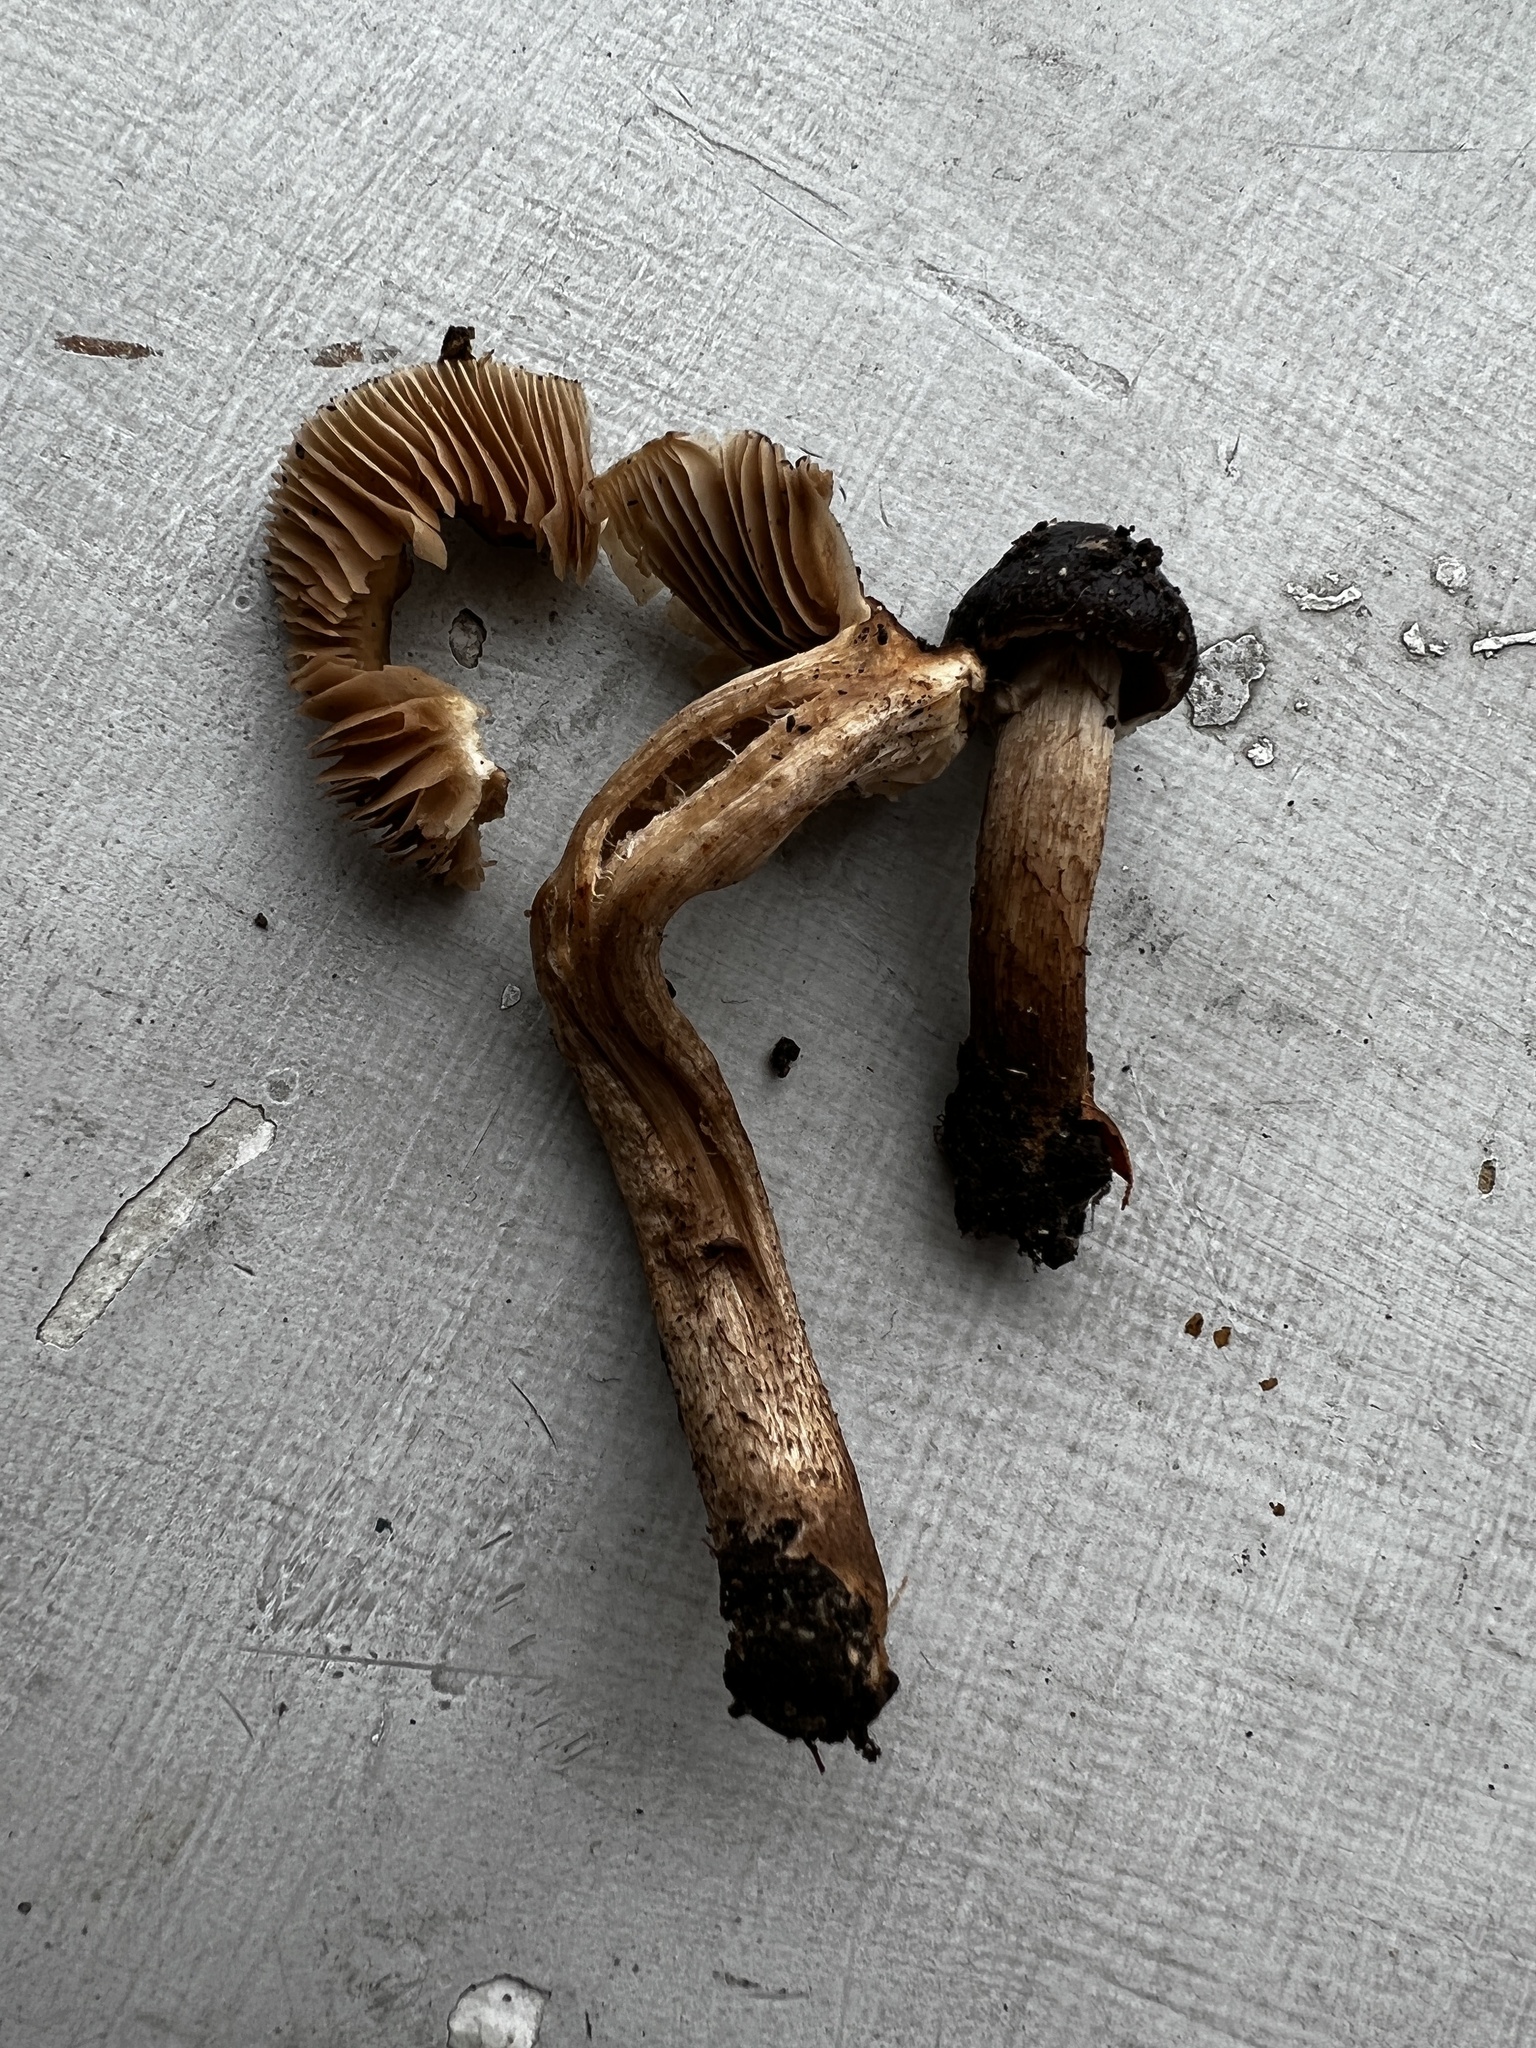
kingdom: Fungi
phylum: Basidiomycota
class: Agaricomycetes
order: Agaricales
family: Tubariaceae
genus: Cyclocybe
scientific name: Cyclocybe erebia
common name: Dark fieldcap
